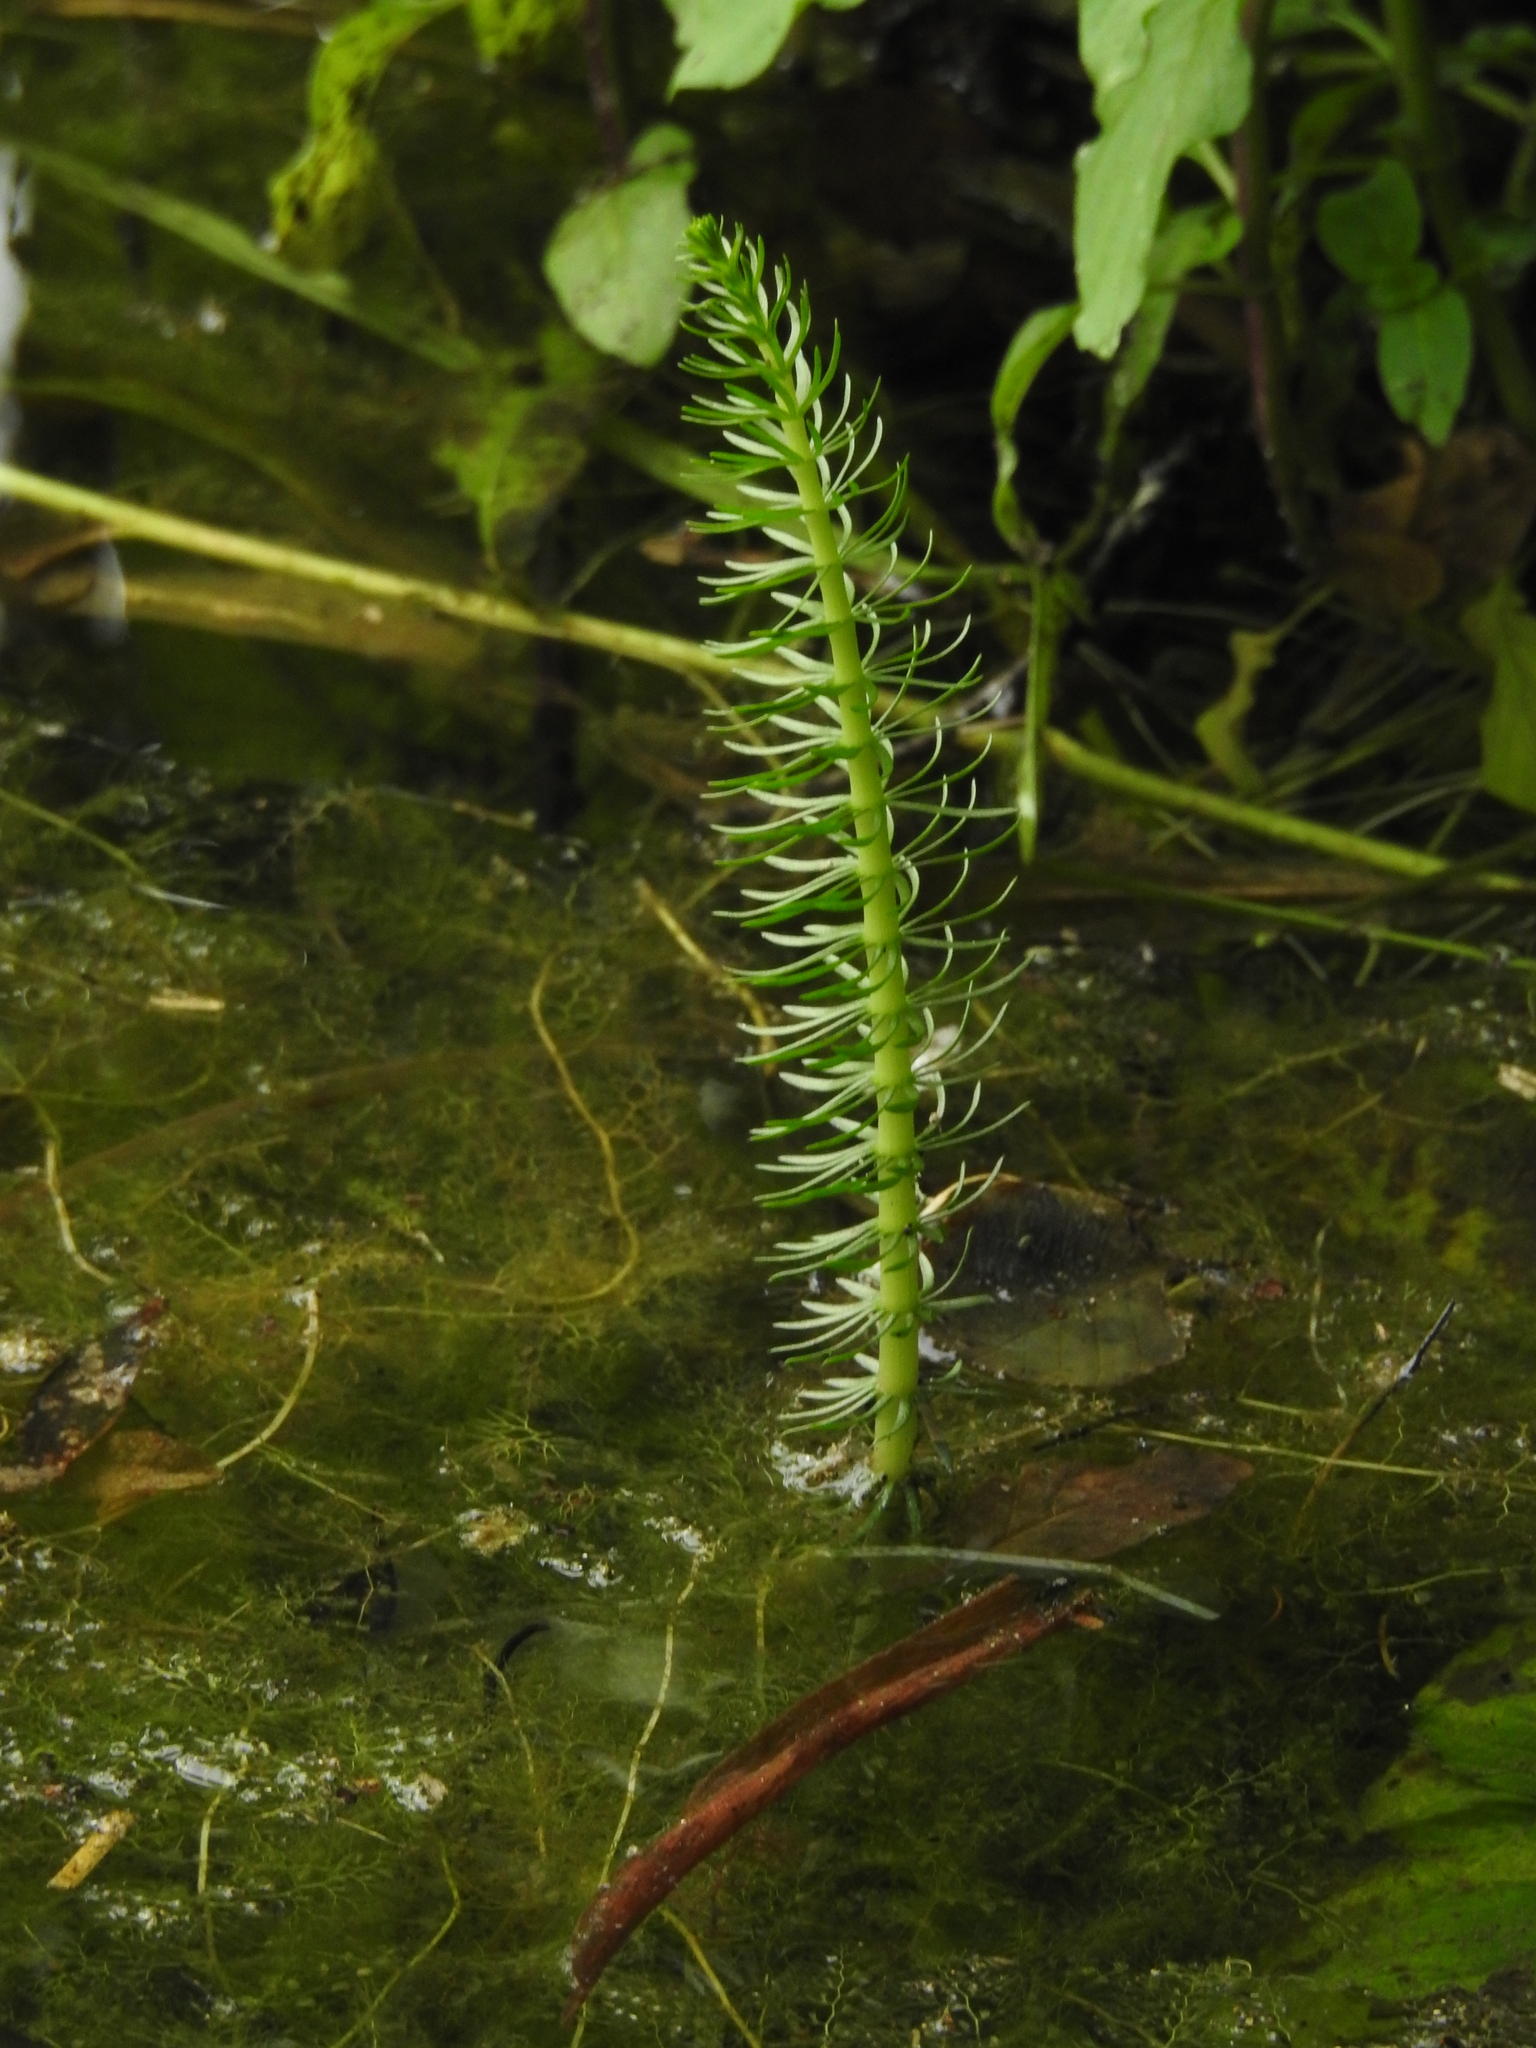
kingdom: Plantae
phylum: Tracheophyta
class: Magnoliopsida
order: Lamiales
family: Plantaginaceae
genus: Hippuris
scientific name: Hippuris vulgaris
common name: Mare's-tail
